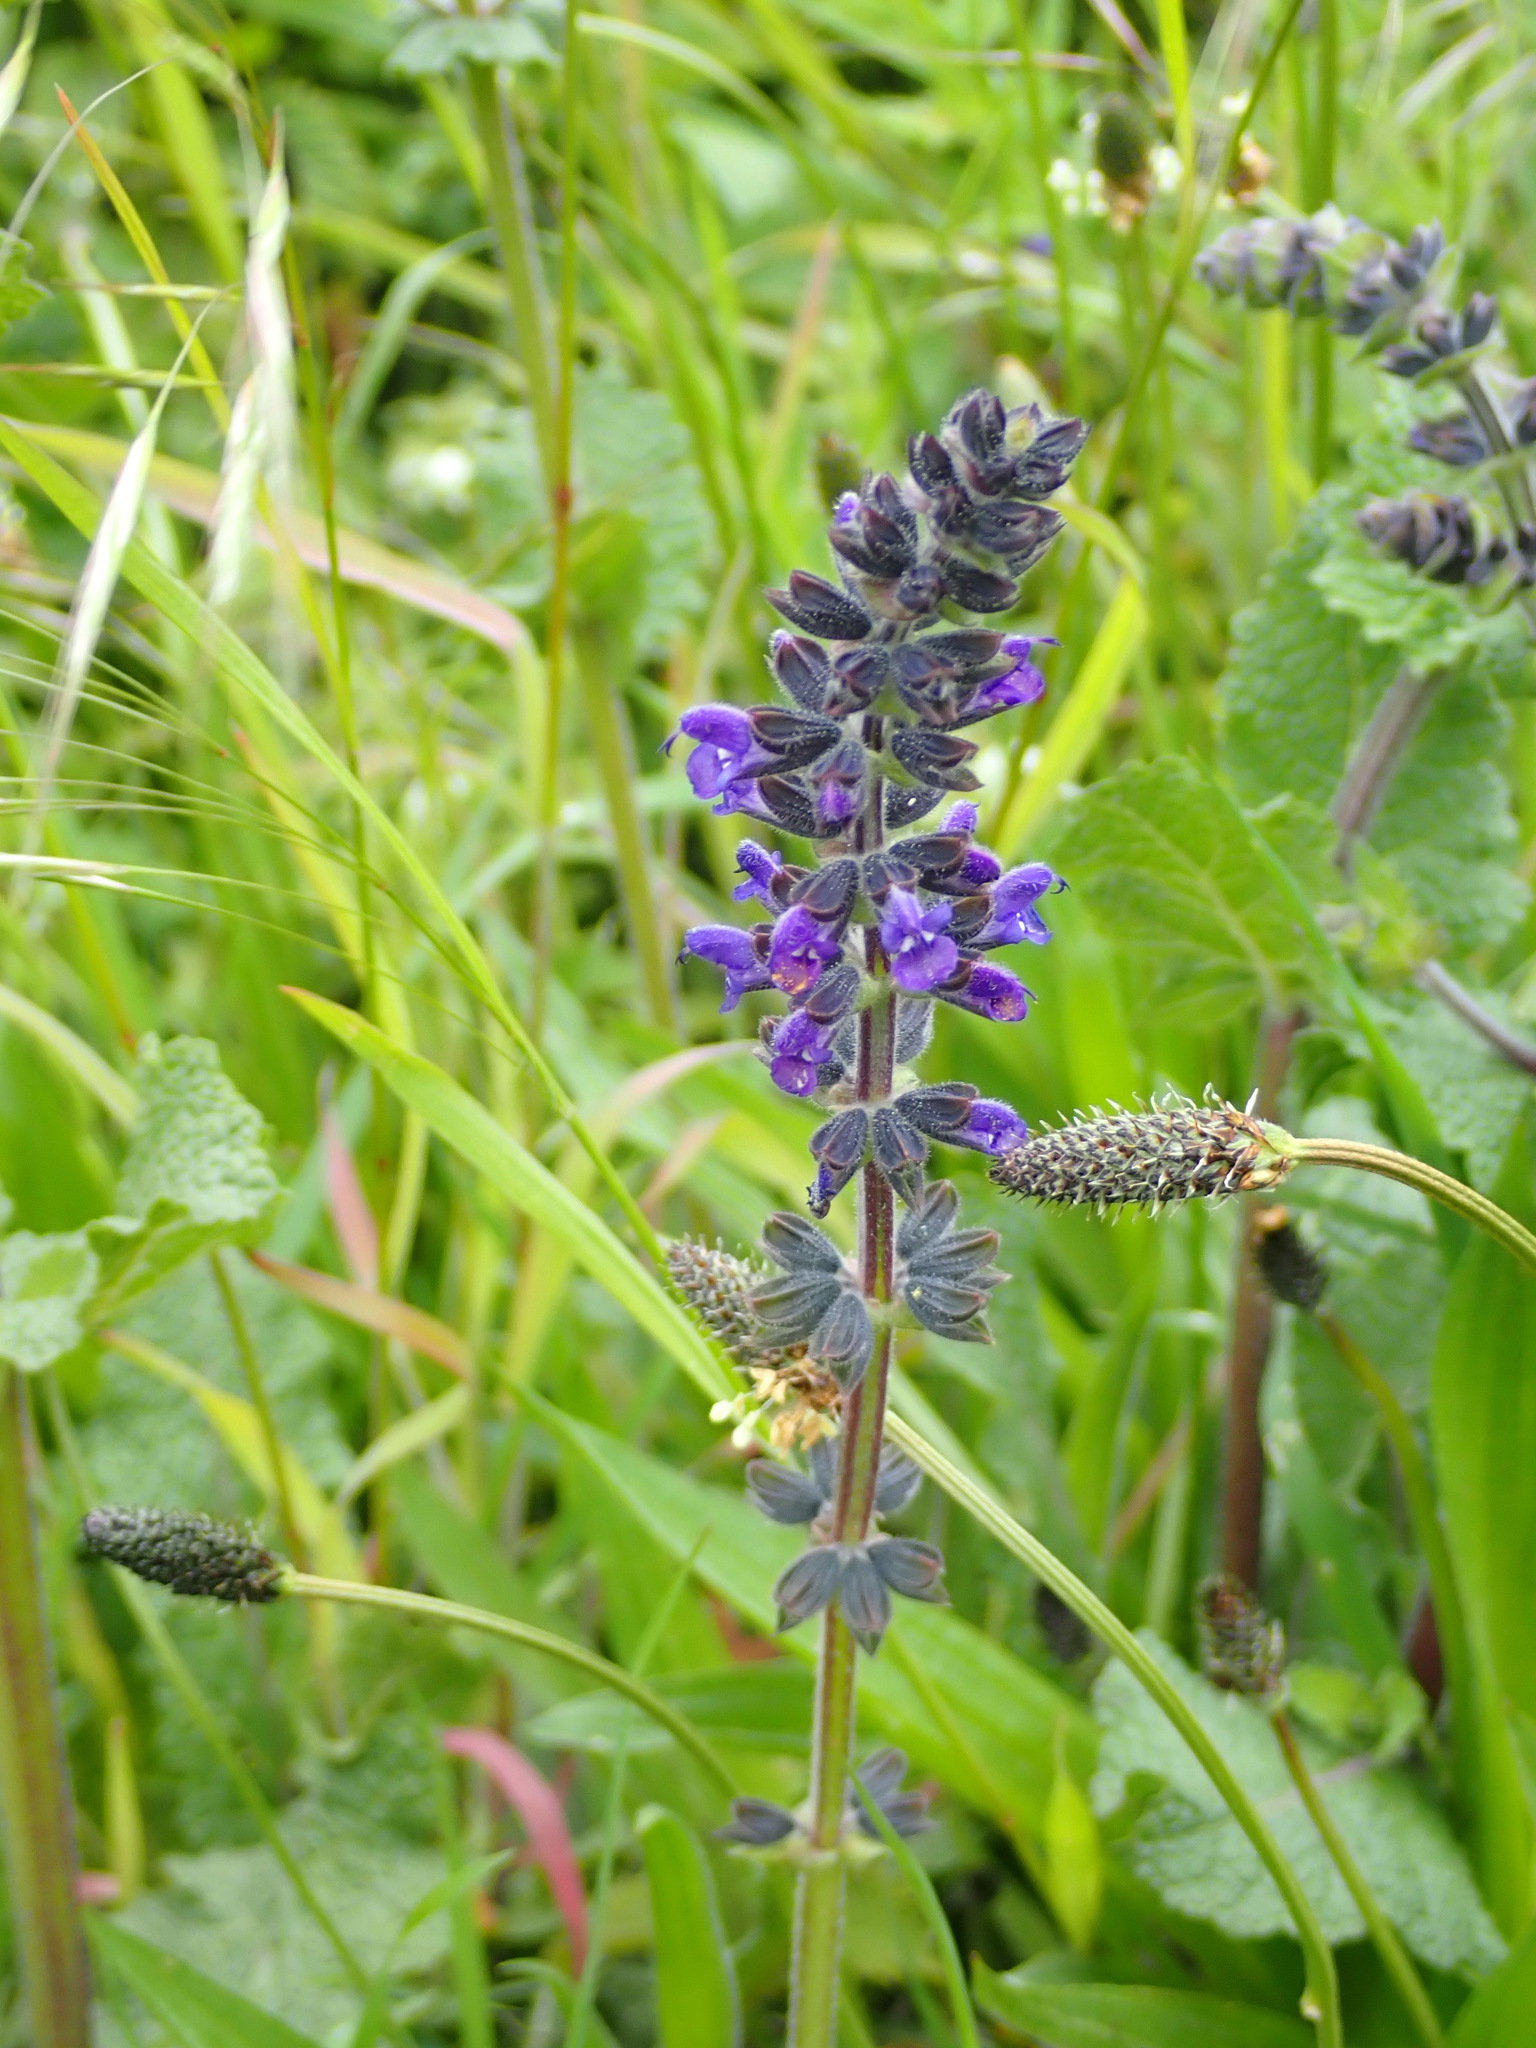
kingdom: Plantae
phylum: Tracheophyta
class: Magnoliopsida
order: Lamiales
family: Lamiaceae
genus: Salvia
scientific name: Salvia verbenaca
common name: Wild clary
